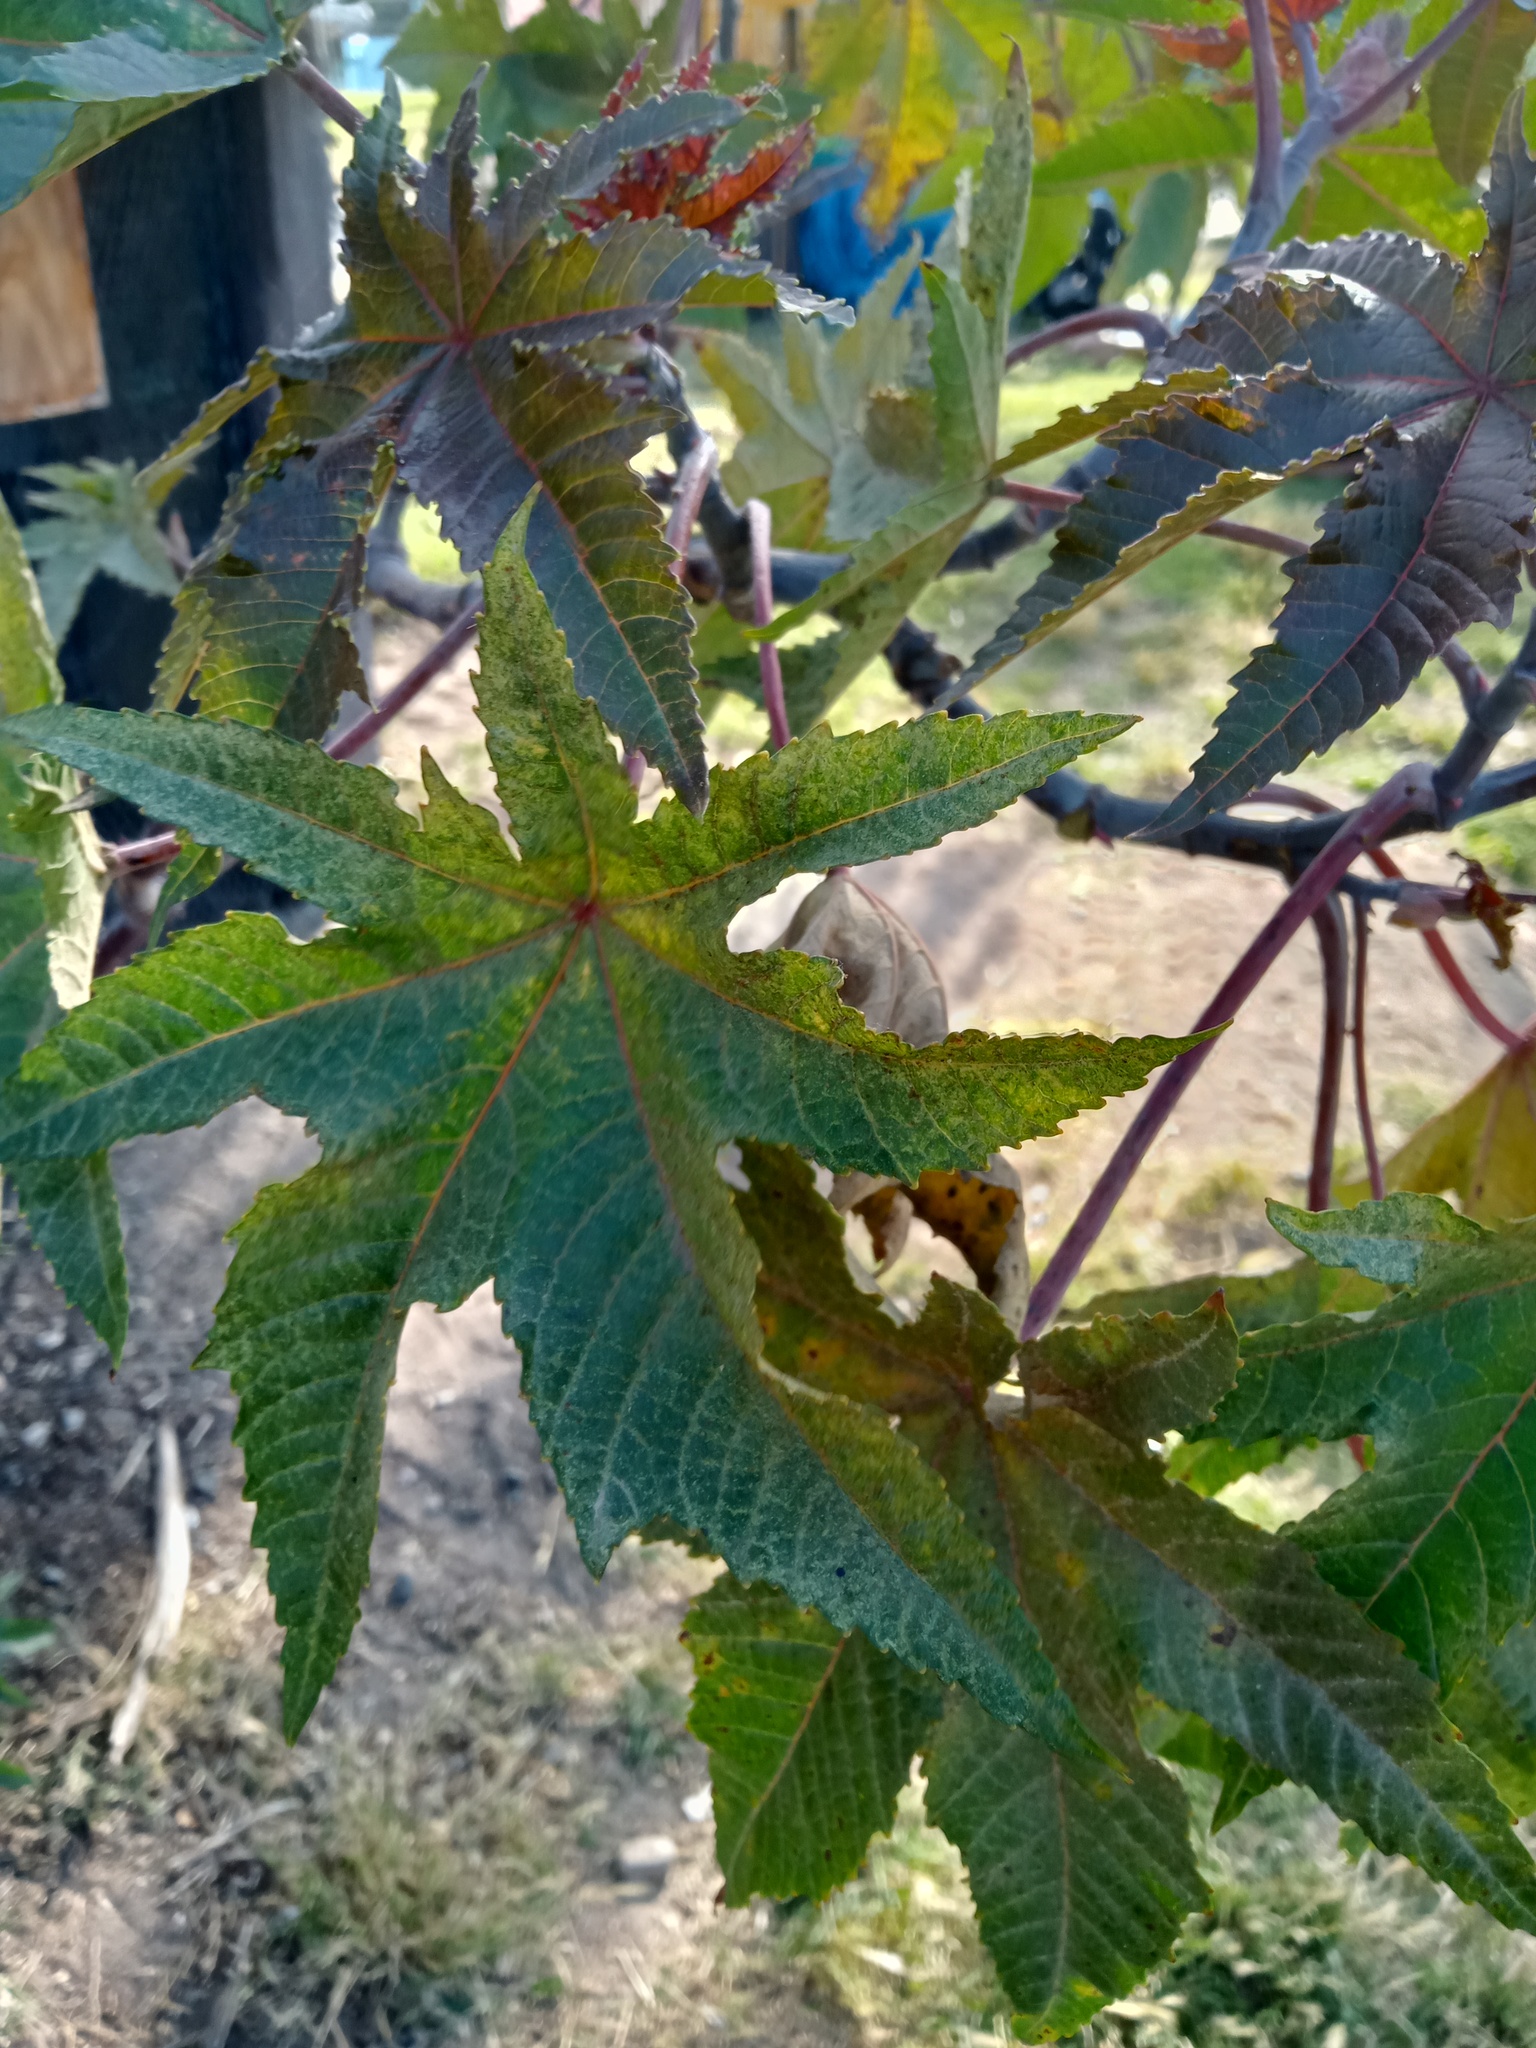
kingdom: Plantae
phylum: Tracheophyta
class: Magnoliopsida
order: Malpighiales
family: Euphorbiaceae
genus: Ricinus
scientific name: Ricinus communis
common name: Castor-oil-plant
